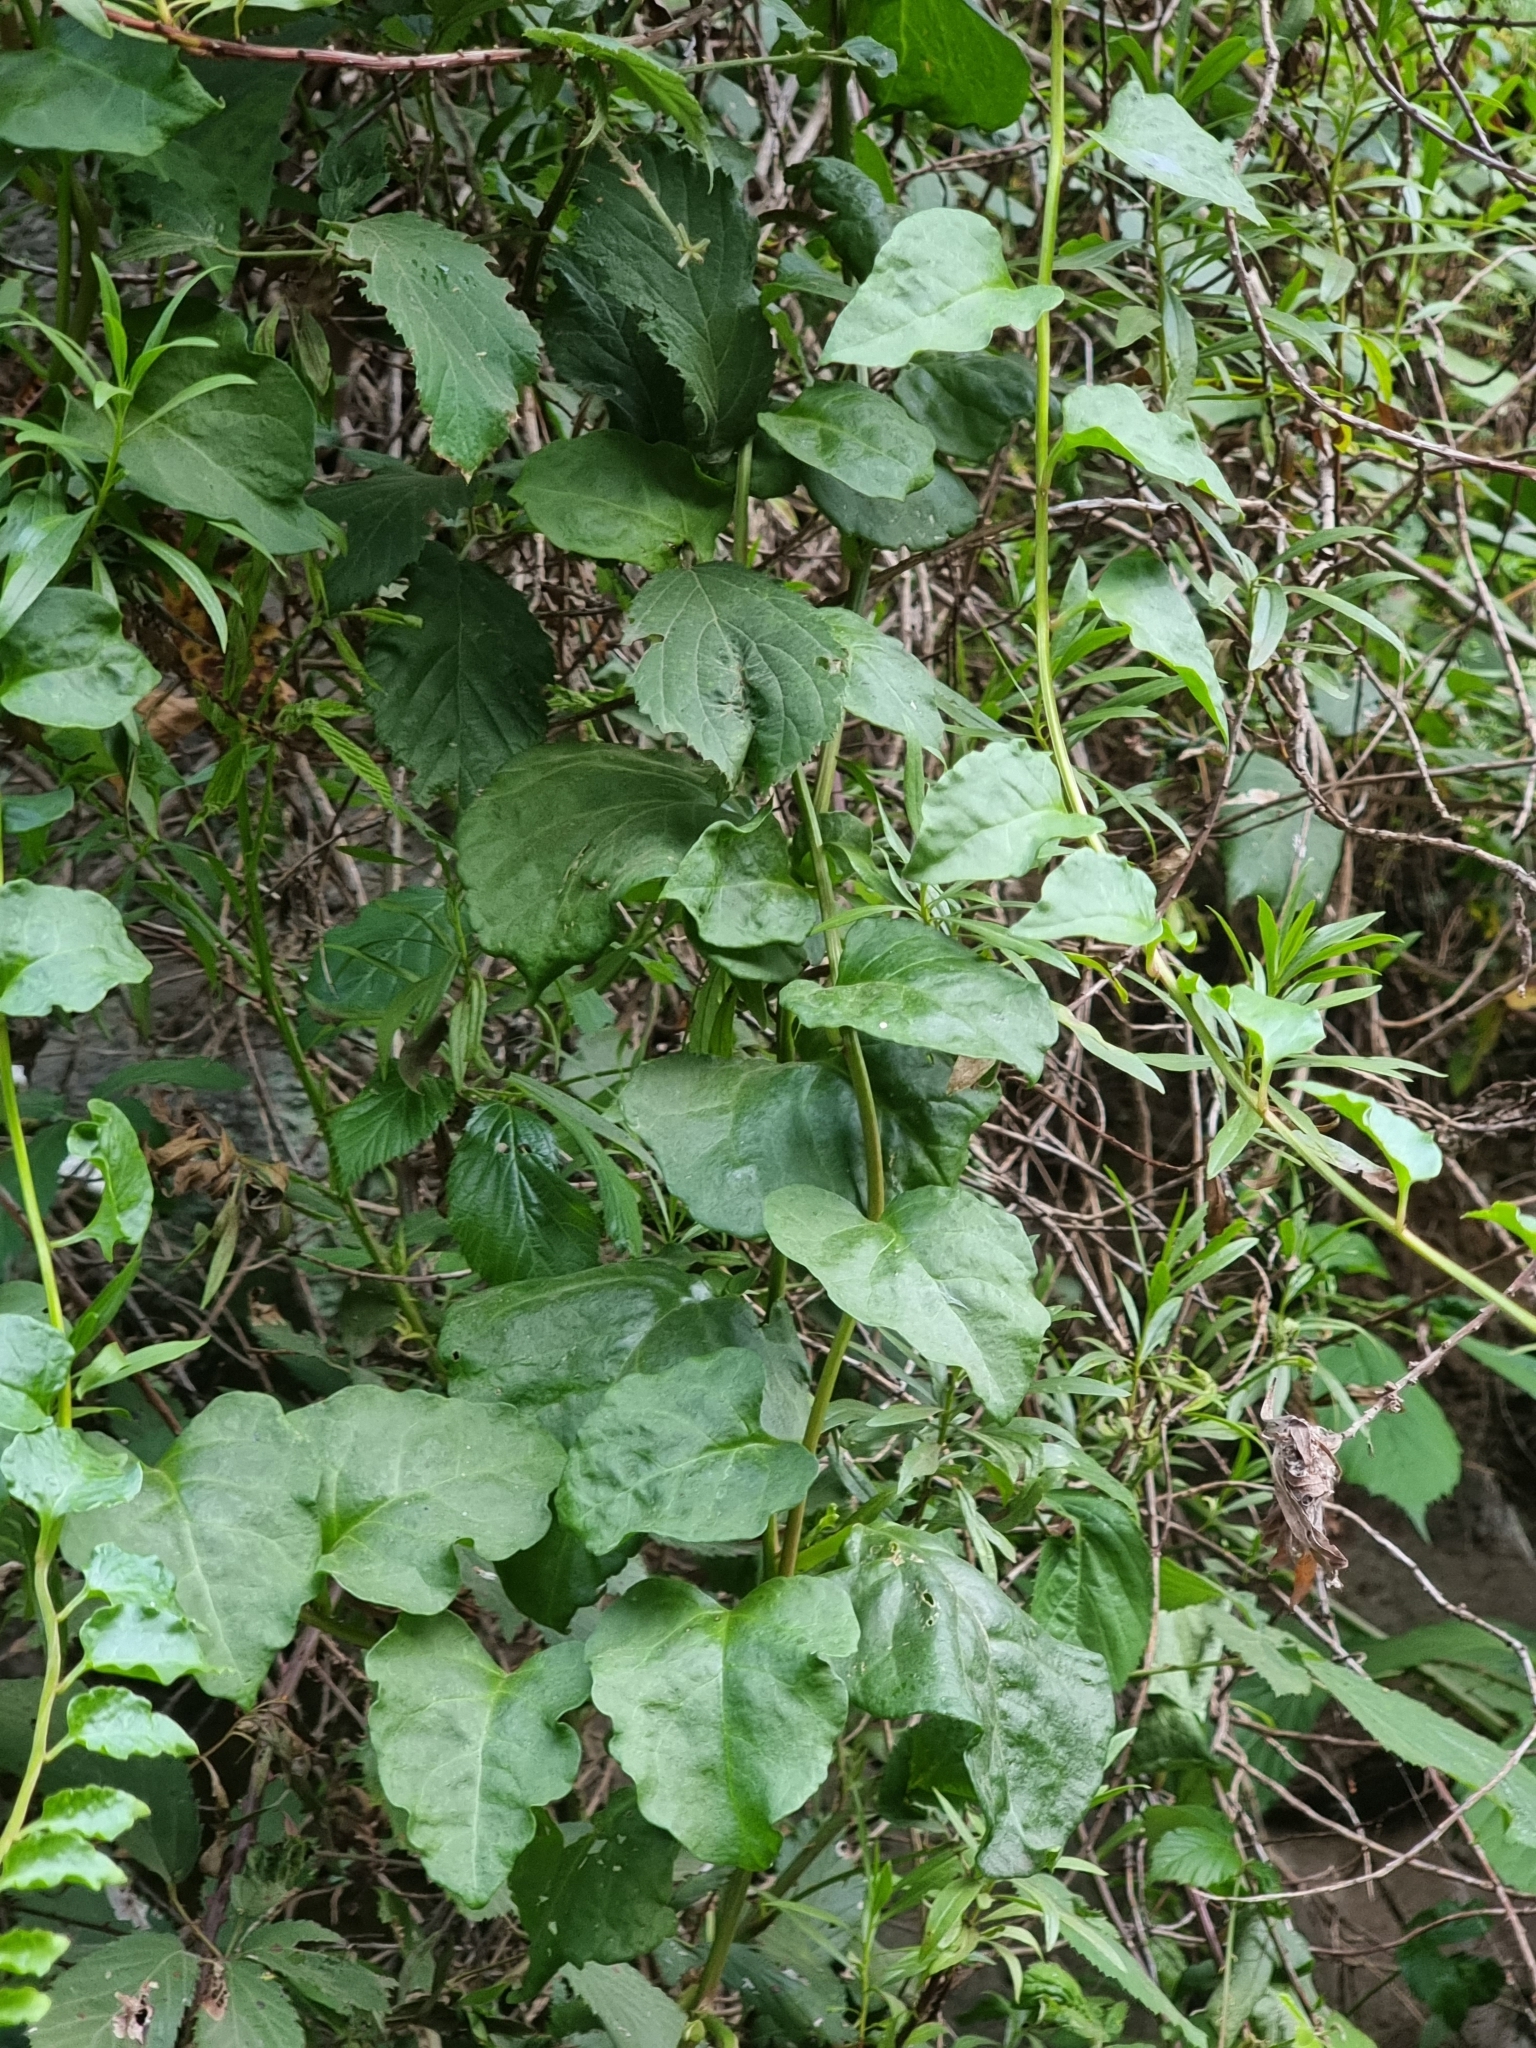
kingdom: Plantae
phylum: Tracheophyta
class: Magnoliopsida
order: Caryophyllales
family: Basellaceae
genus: Anredera
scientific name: Anredera cordifolia
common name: Heartleaf madeiravine
